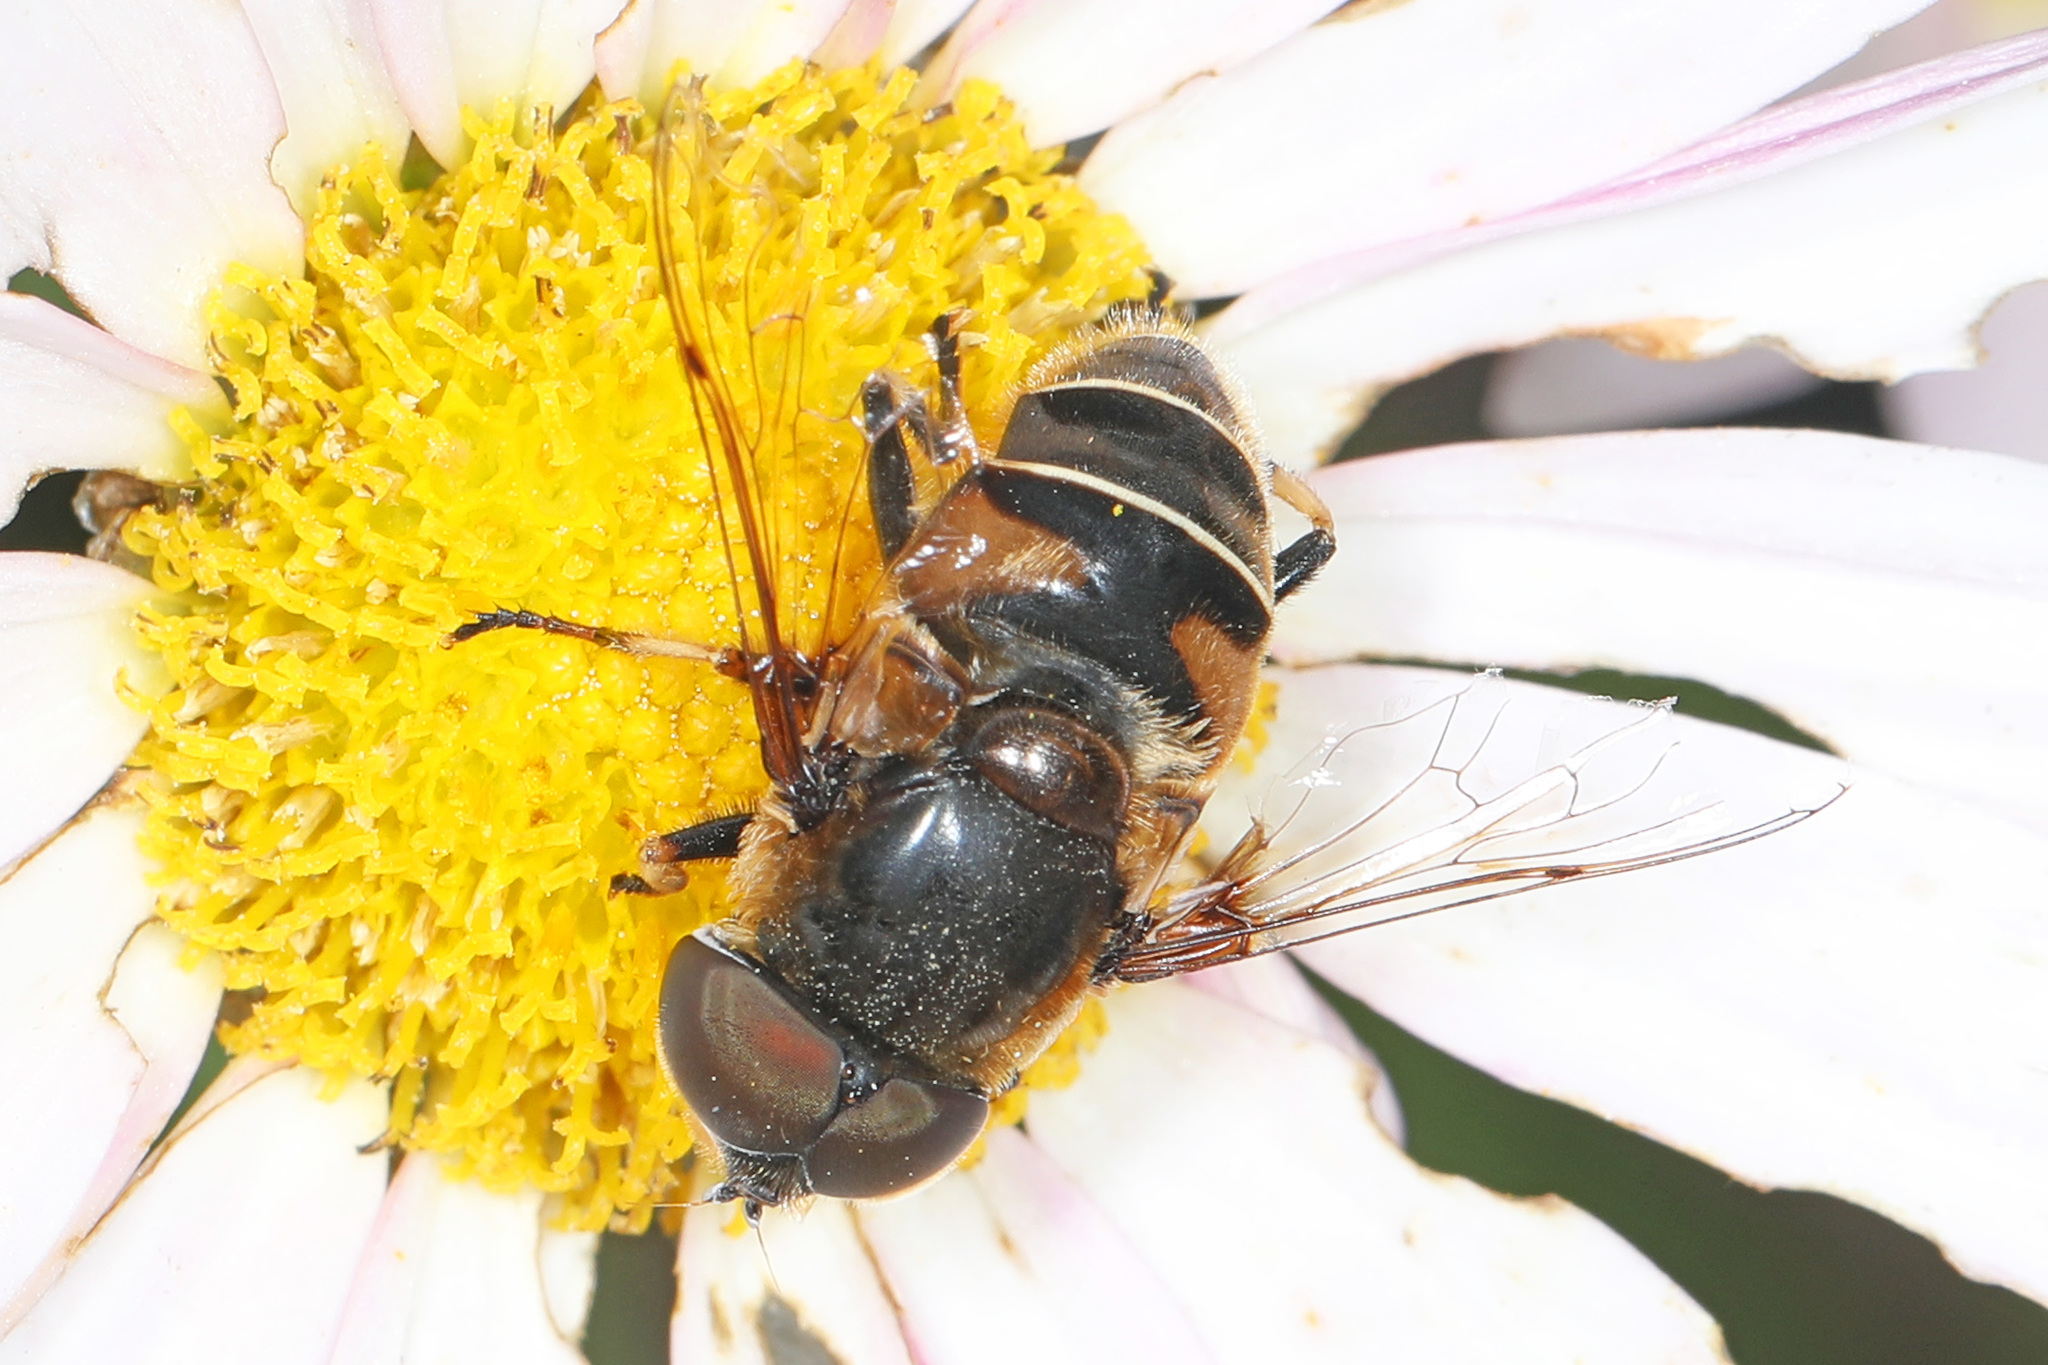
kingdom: Animalia
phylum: Arthropoda
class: Insecta
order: Diptera
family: Syrphidae
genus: Eristalis
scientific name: Eristalis dimidiata
